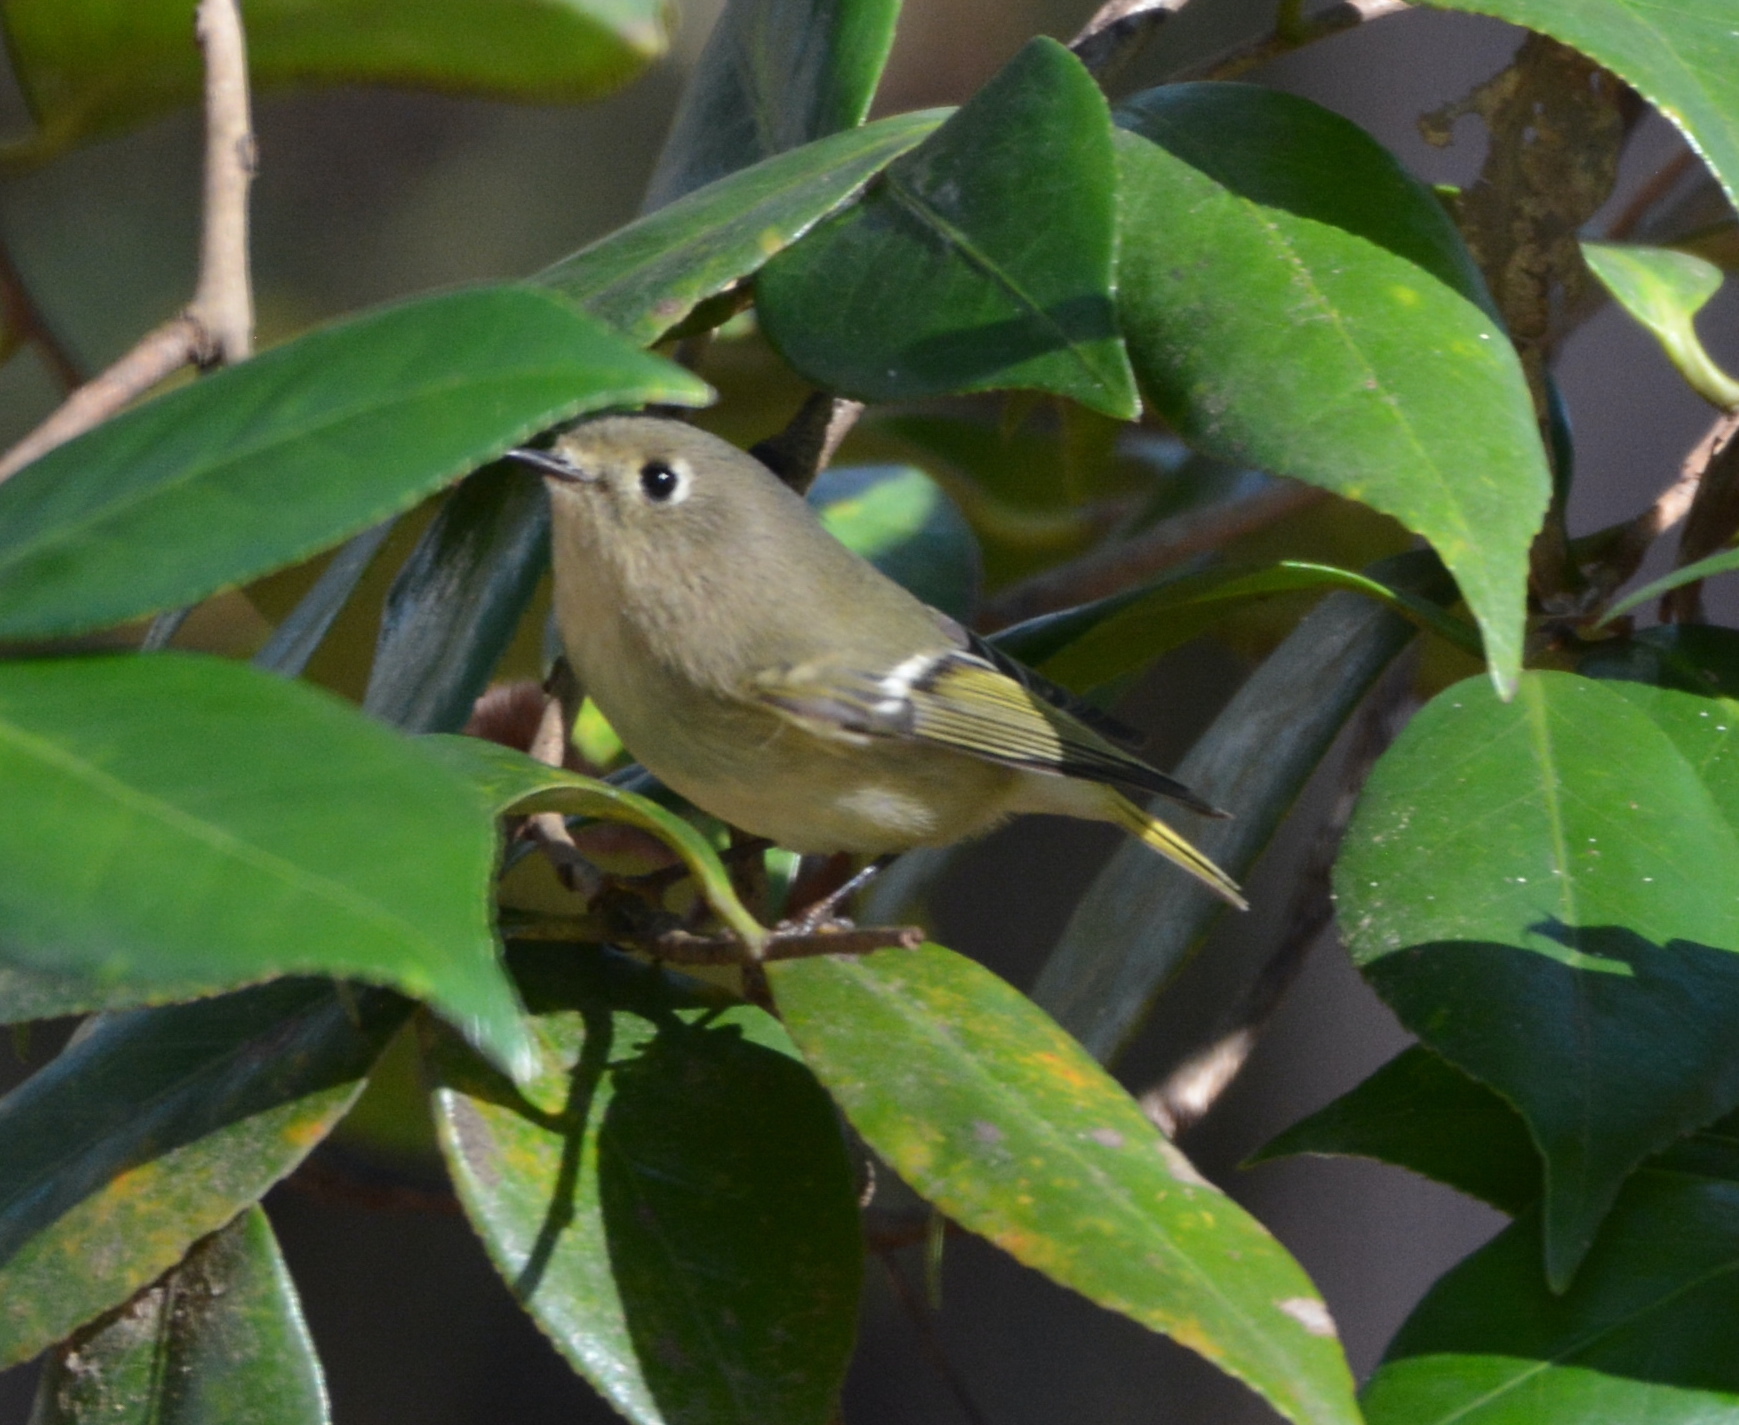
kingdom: Animalia
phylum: Chordata
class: Aves
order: Passeriformes
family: Regulidae
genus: Regulus
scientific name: Regulus calendula
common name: Ruby-crowned kinglet
